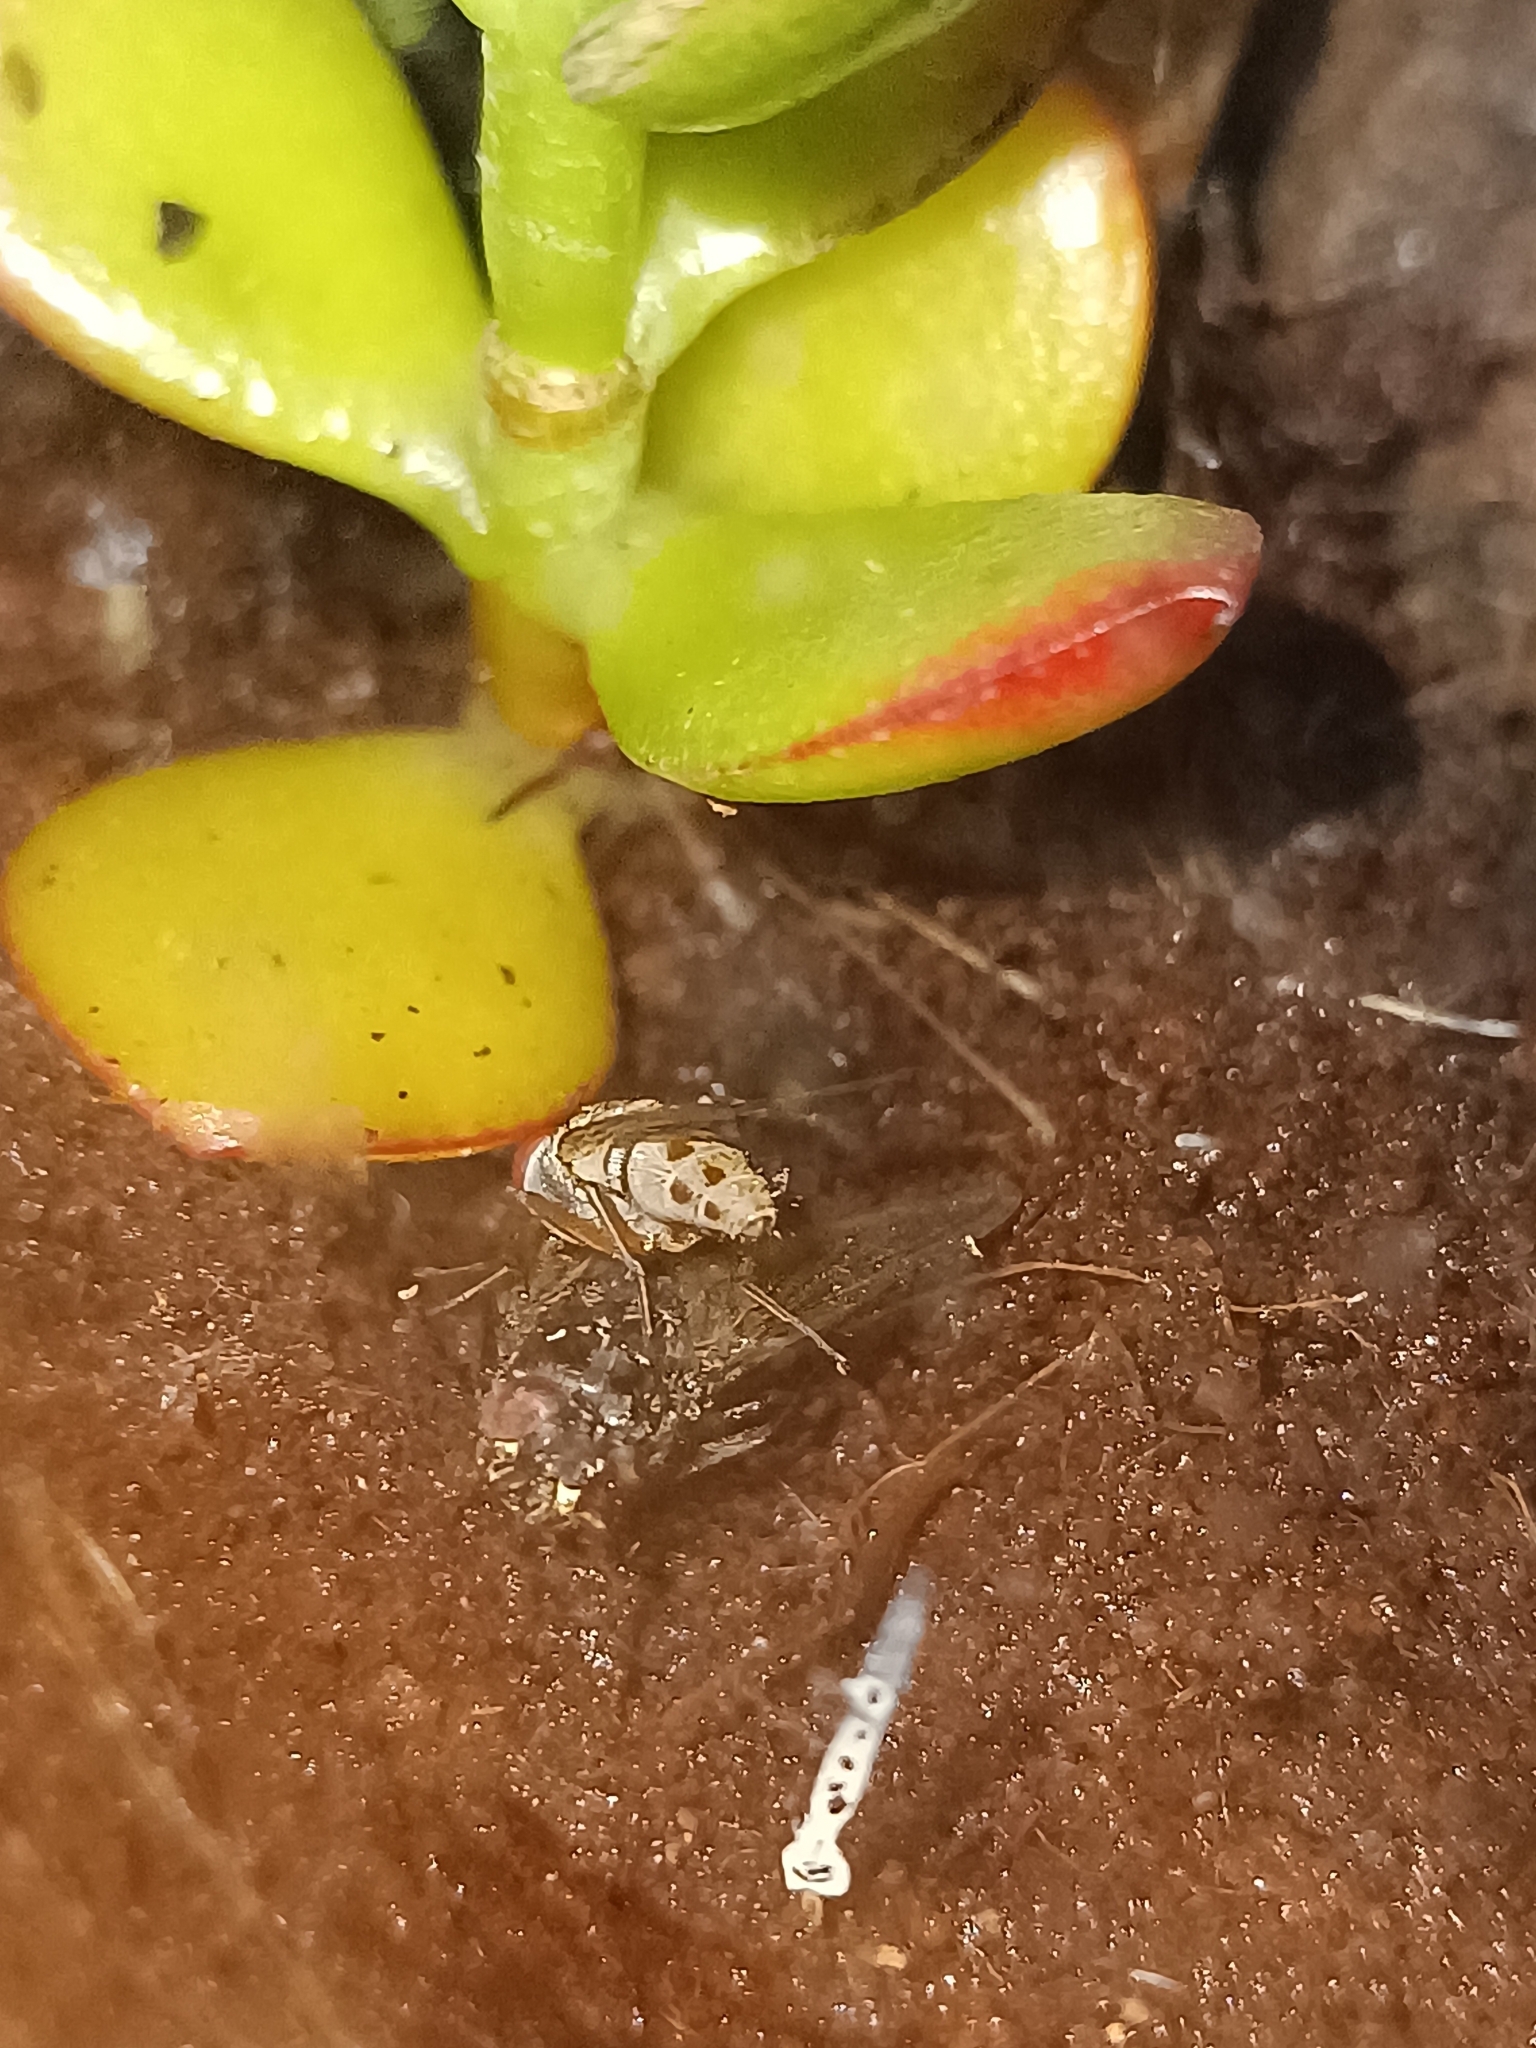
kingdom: Animalia
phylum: Arthropoda
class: Insecta
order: Diptera
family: Muscidae
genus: Coenosia
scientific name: Coenosia tigrina
